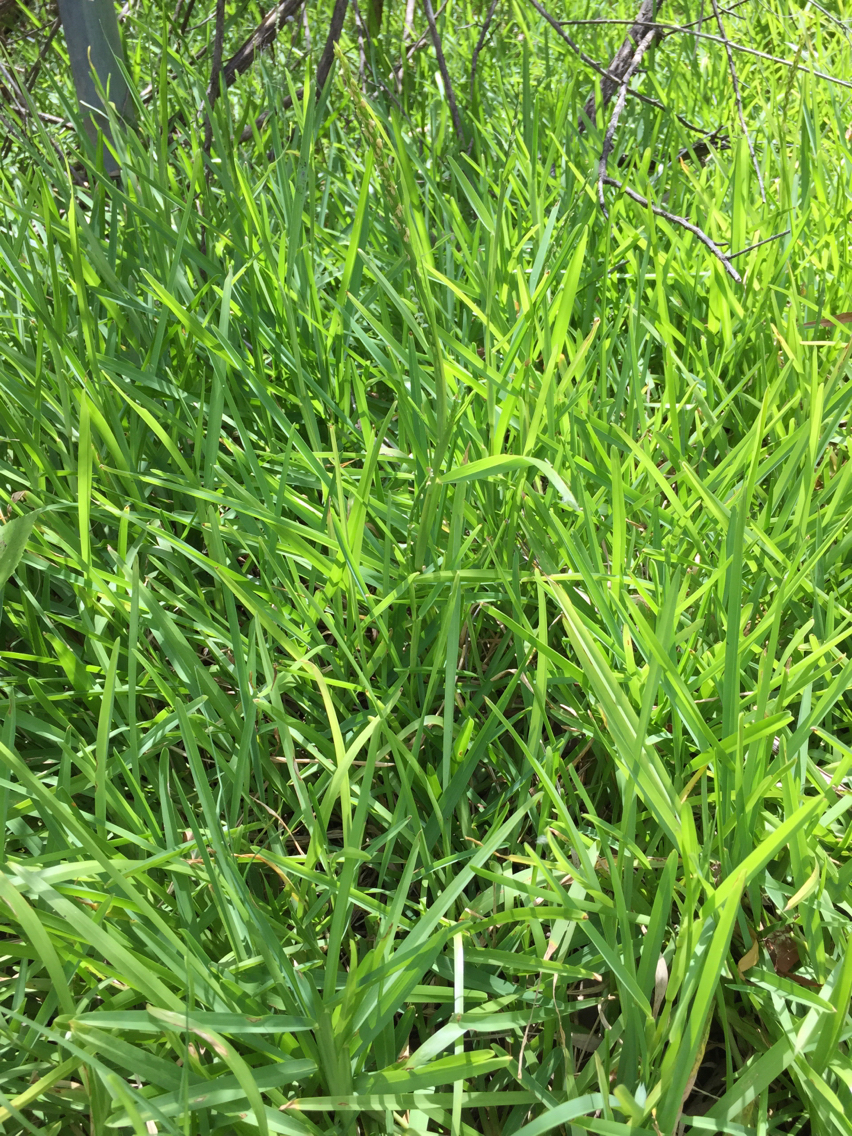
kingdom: Plantae
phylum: Tracheophyta
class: Liliopsida
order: Poales
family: Poaceae
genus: Stenotaphrum
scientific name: Stenotaphrum secundatum
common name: St. augustine grass
